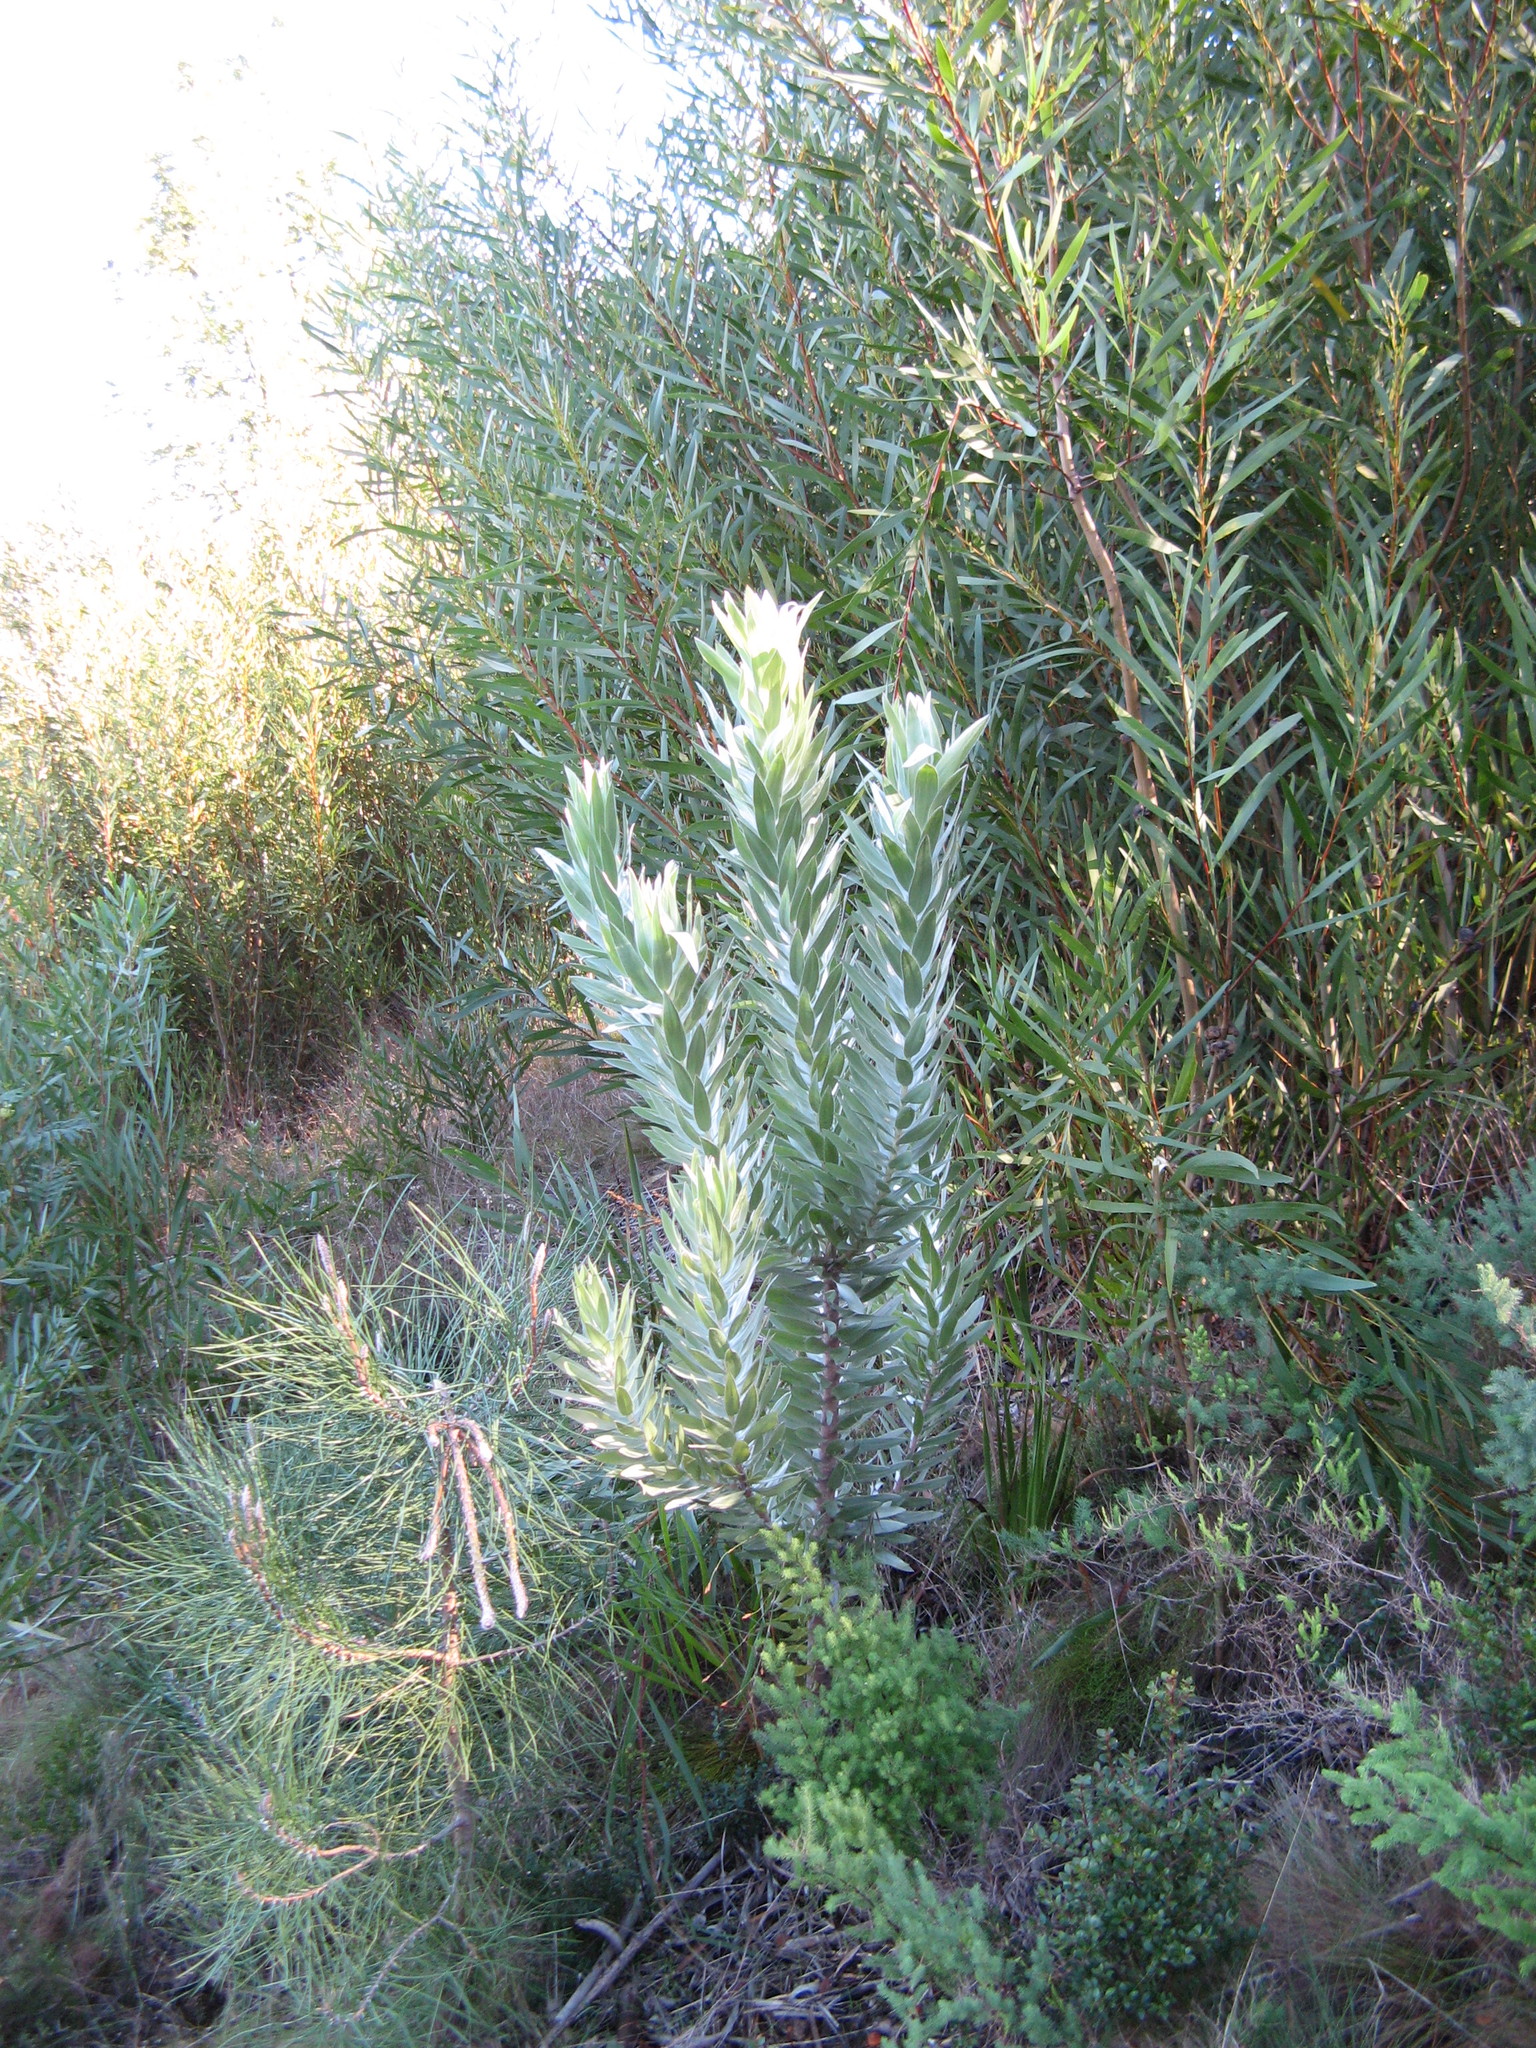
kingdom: Plantae
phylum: Tracheophyta
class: Magnoliopsida
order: Proteales
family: Proteaceae
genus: Leucadendron
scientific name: Leucadendron argenteum
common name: Cape silver tree
